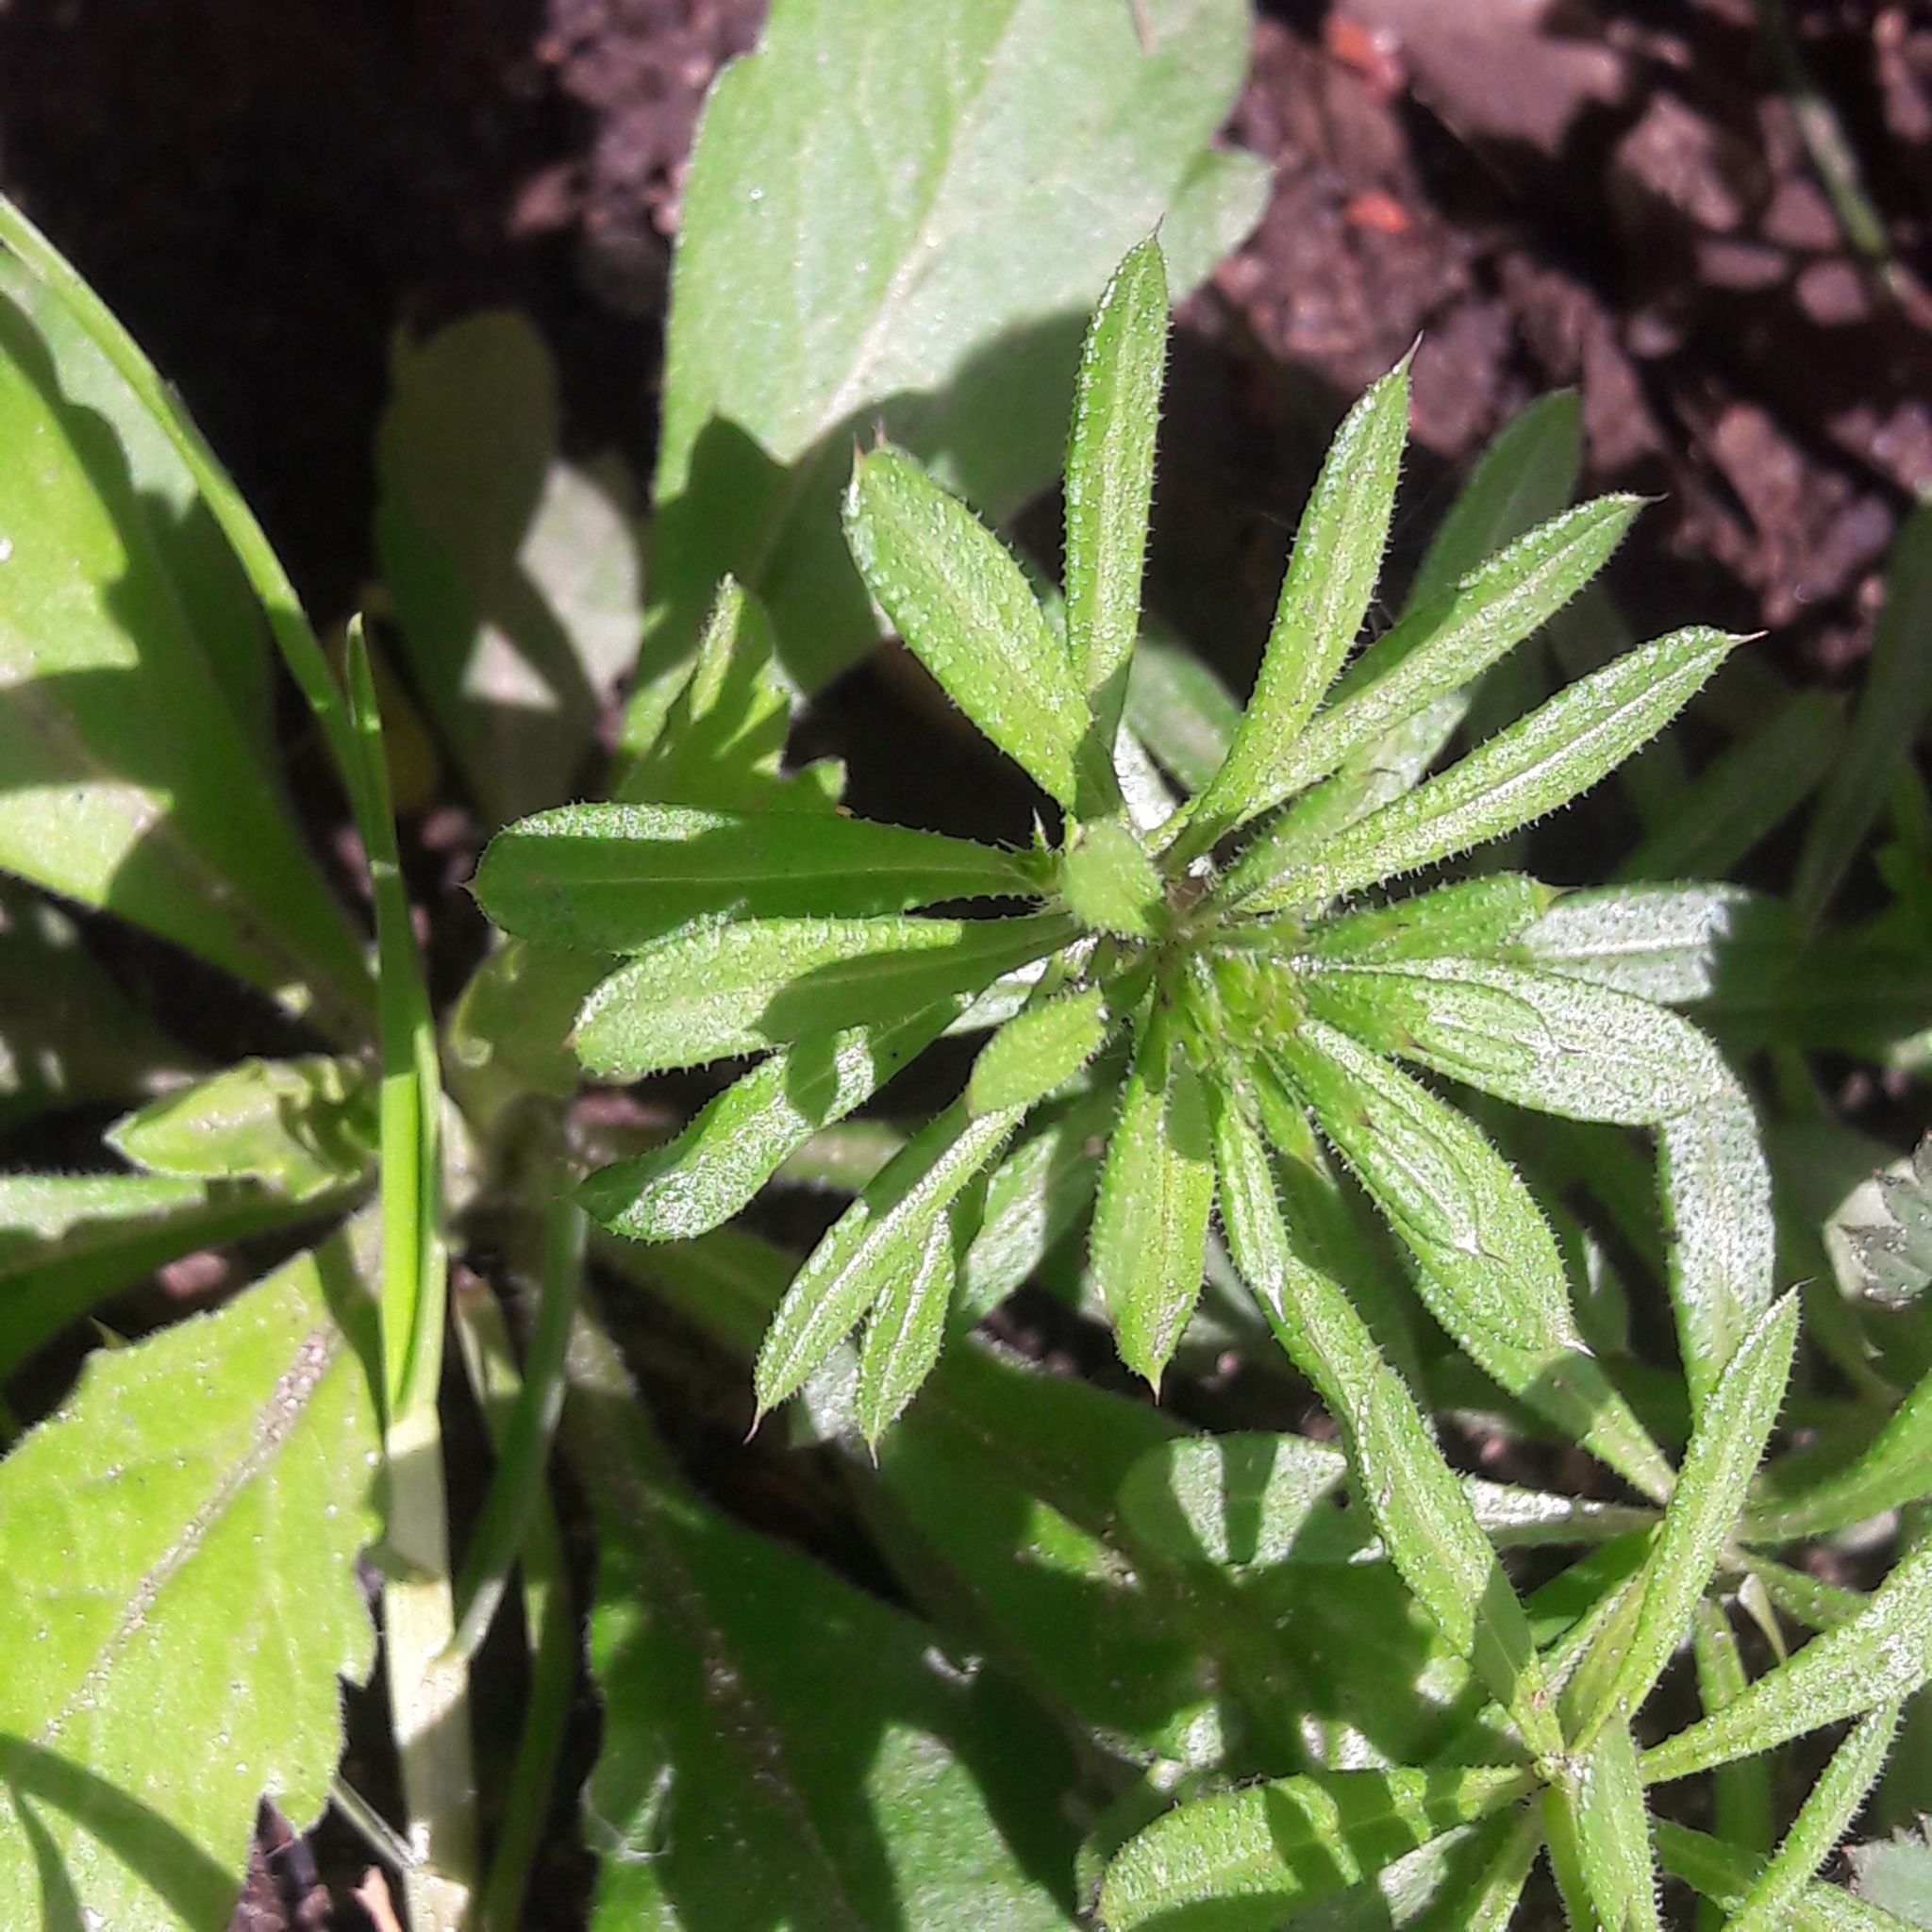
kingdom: Plantae
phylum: Tracheophyta
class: Magnoliopsida
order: Gentianales
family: Rubiaceae
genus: Galium
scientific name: Galium aparine
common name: Cleavers
